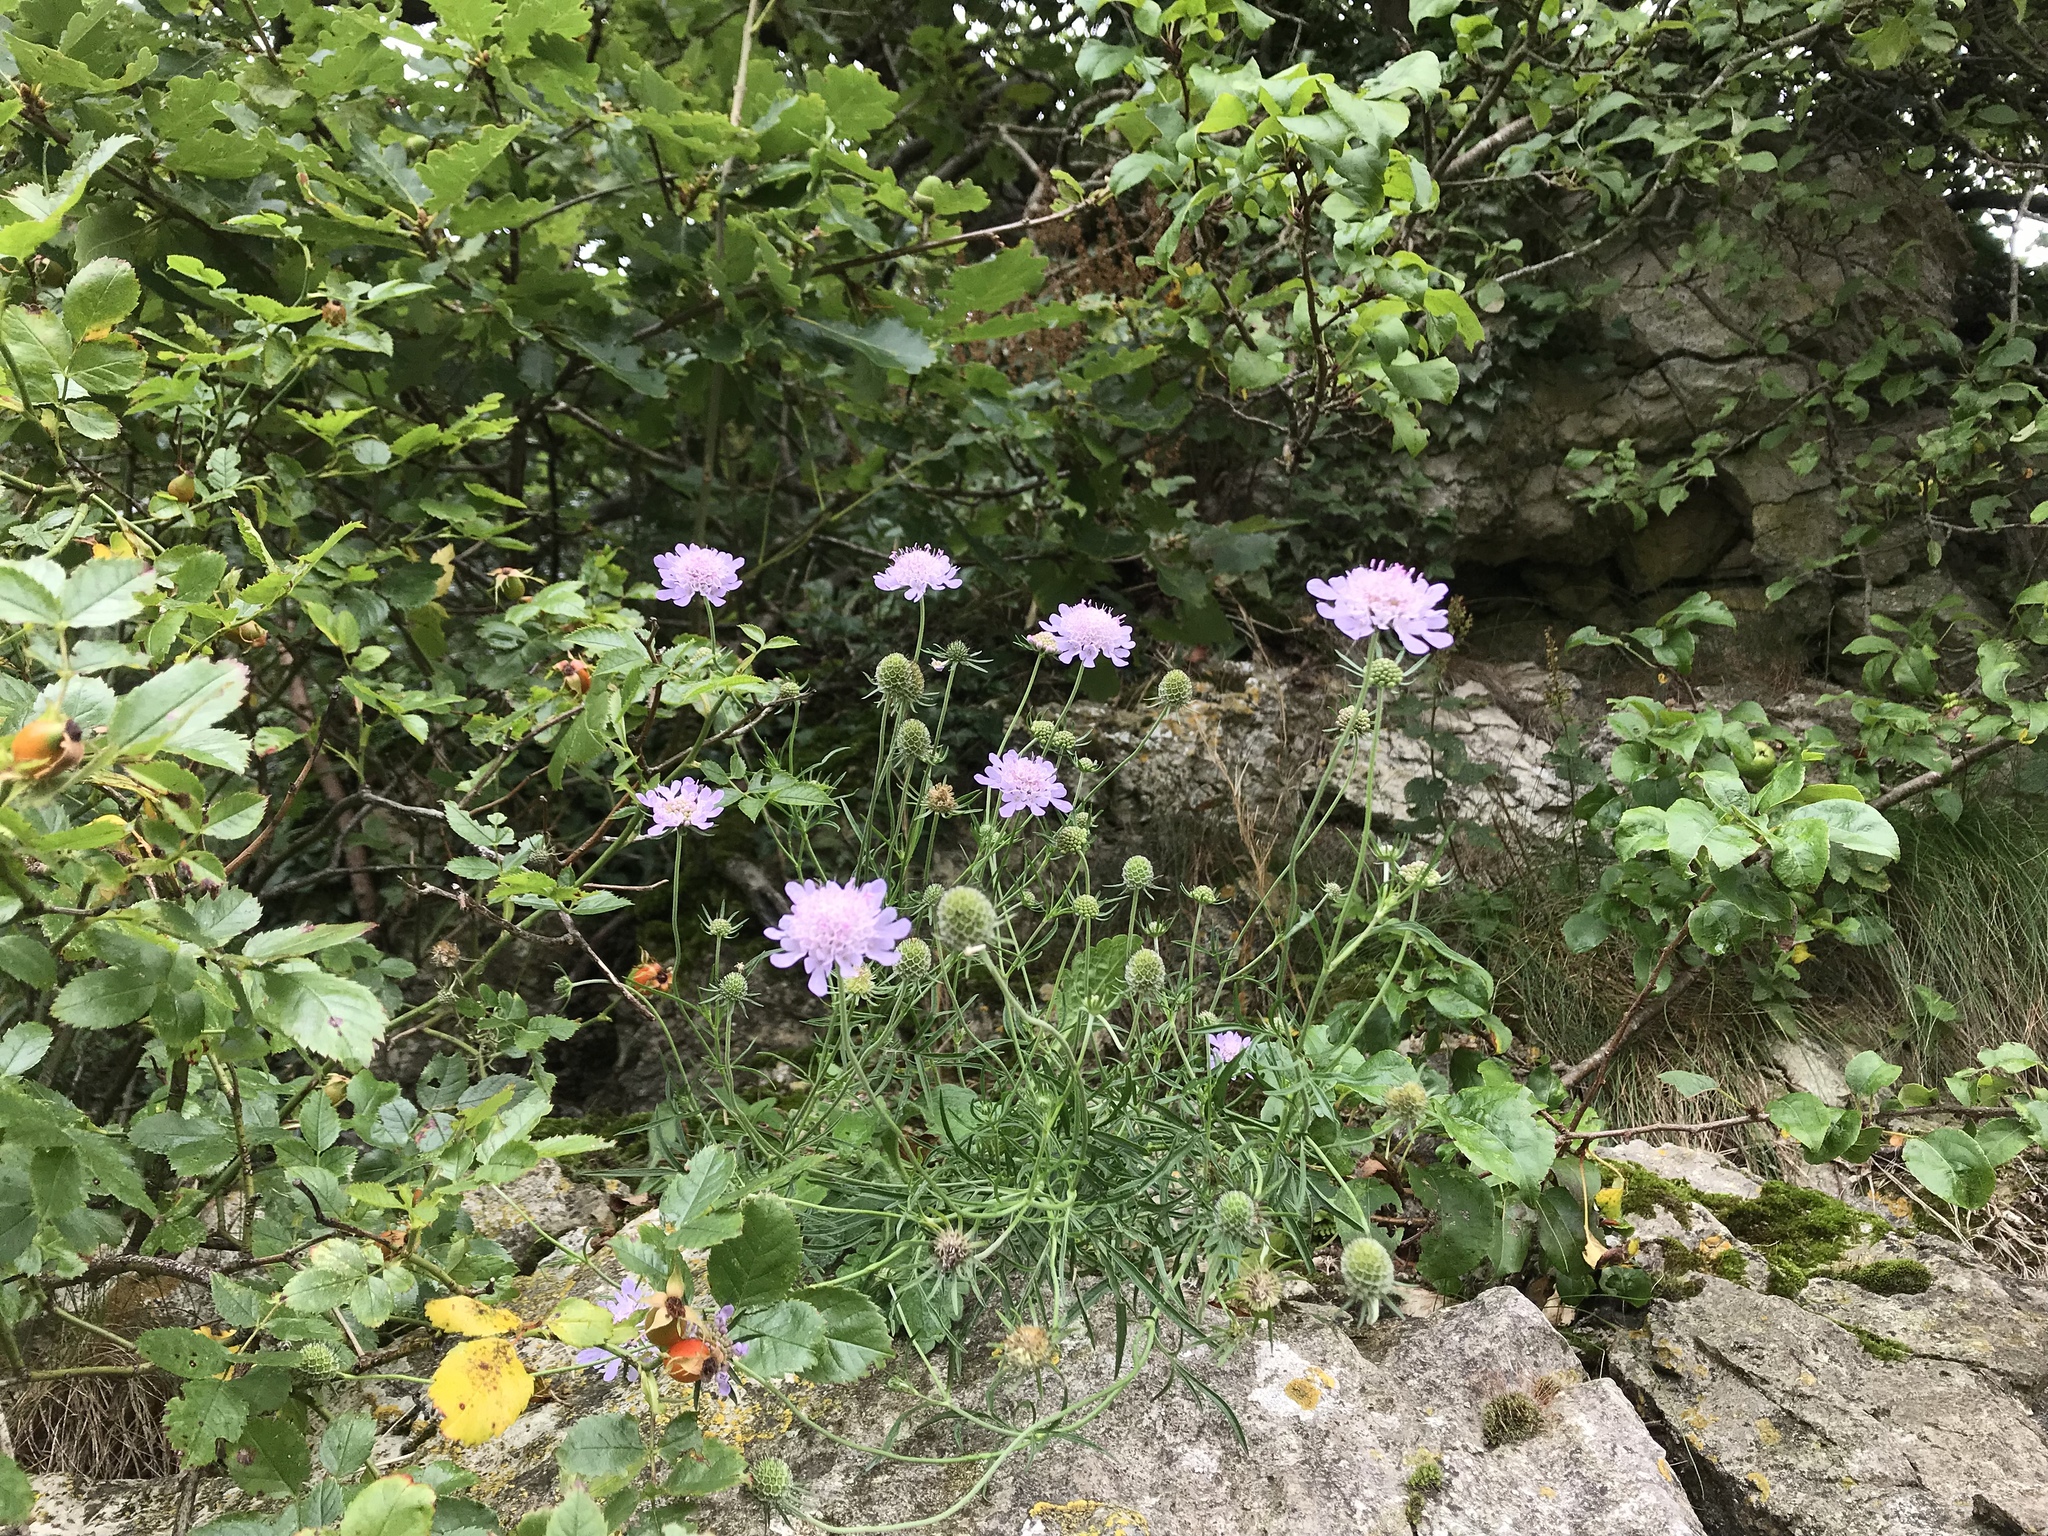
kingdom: Plantae
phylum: Tracheophyta
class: Magnoliopsida
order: Dipsacales
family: Caprifoliaceae
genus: Scabiosa
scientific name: Scabiosa columbaria
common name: Small scabious
